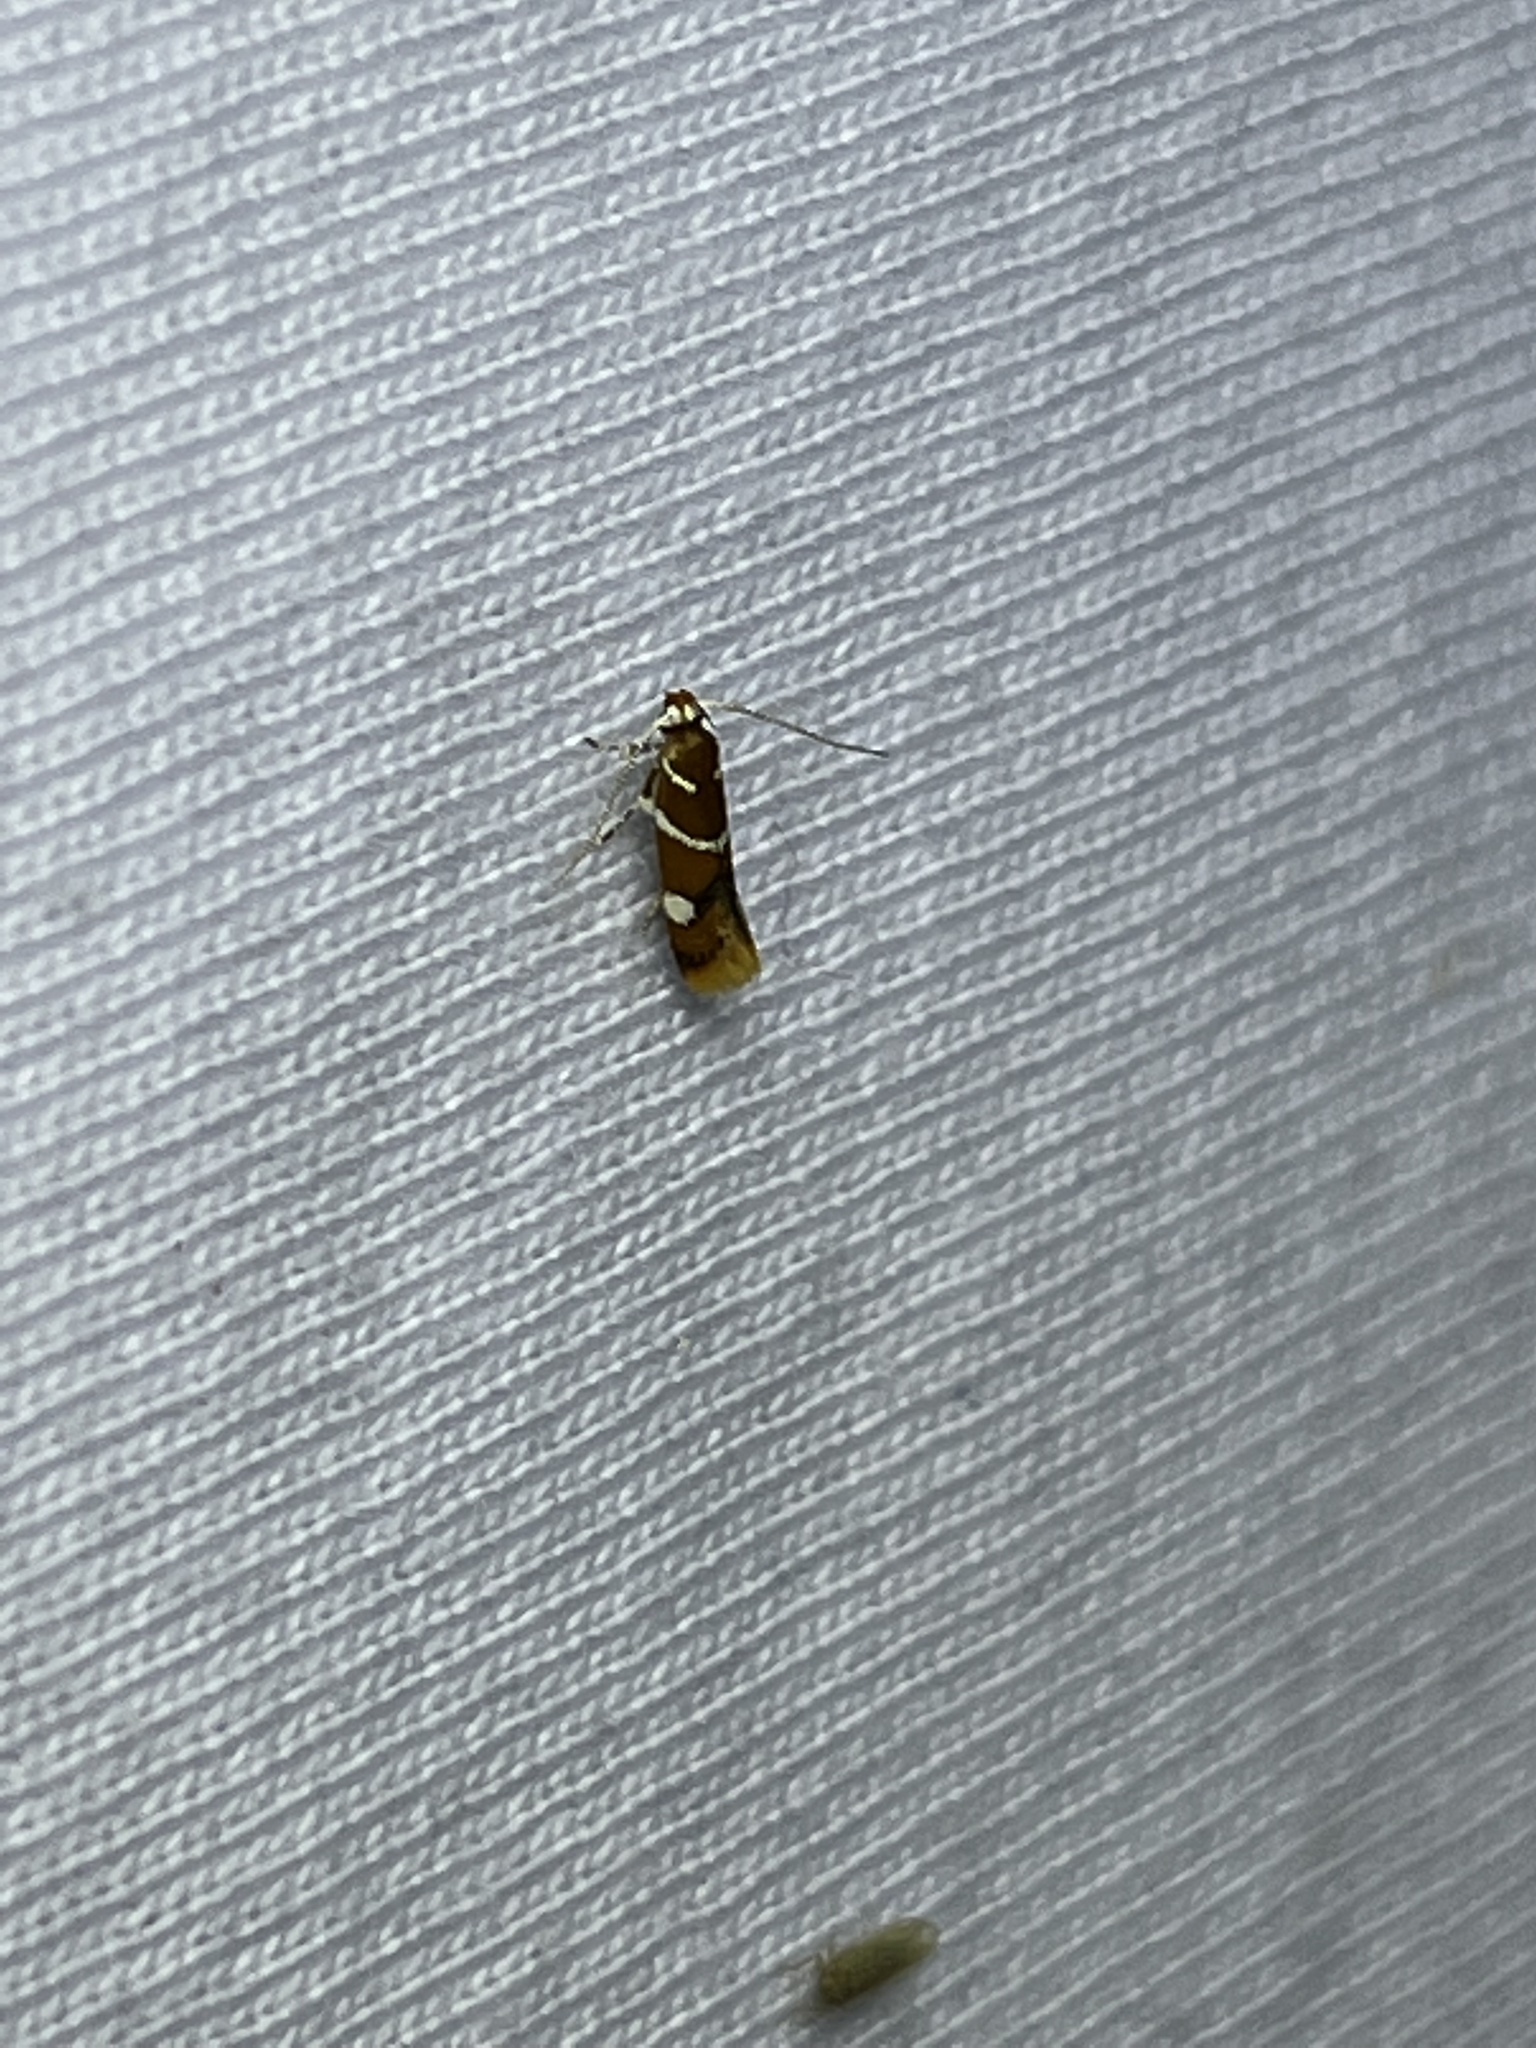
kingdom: Animalia
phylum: Arthropoda
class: Insecta
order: Lepidoptera
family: Oecophoridae
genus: Promalactis
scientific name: Promalactis suzukiella
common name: Moth
